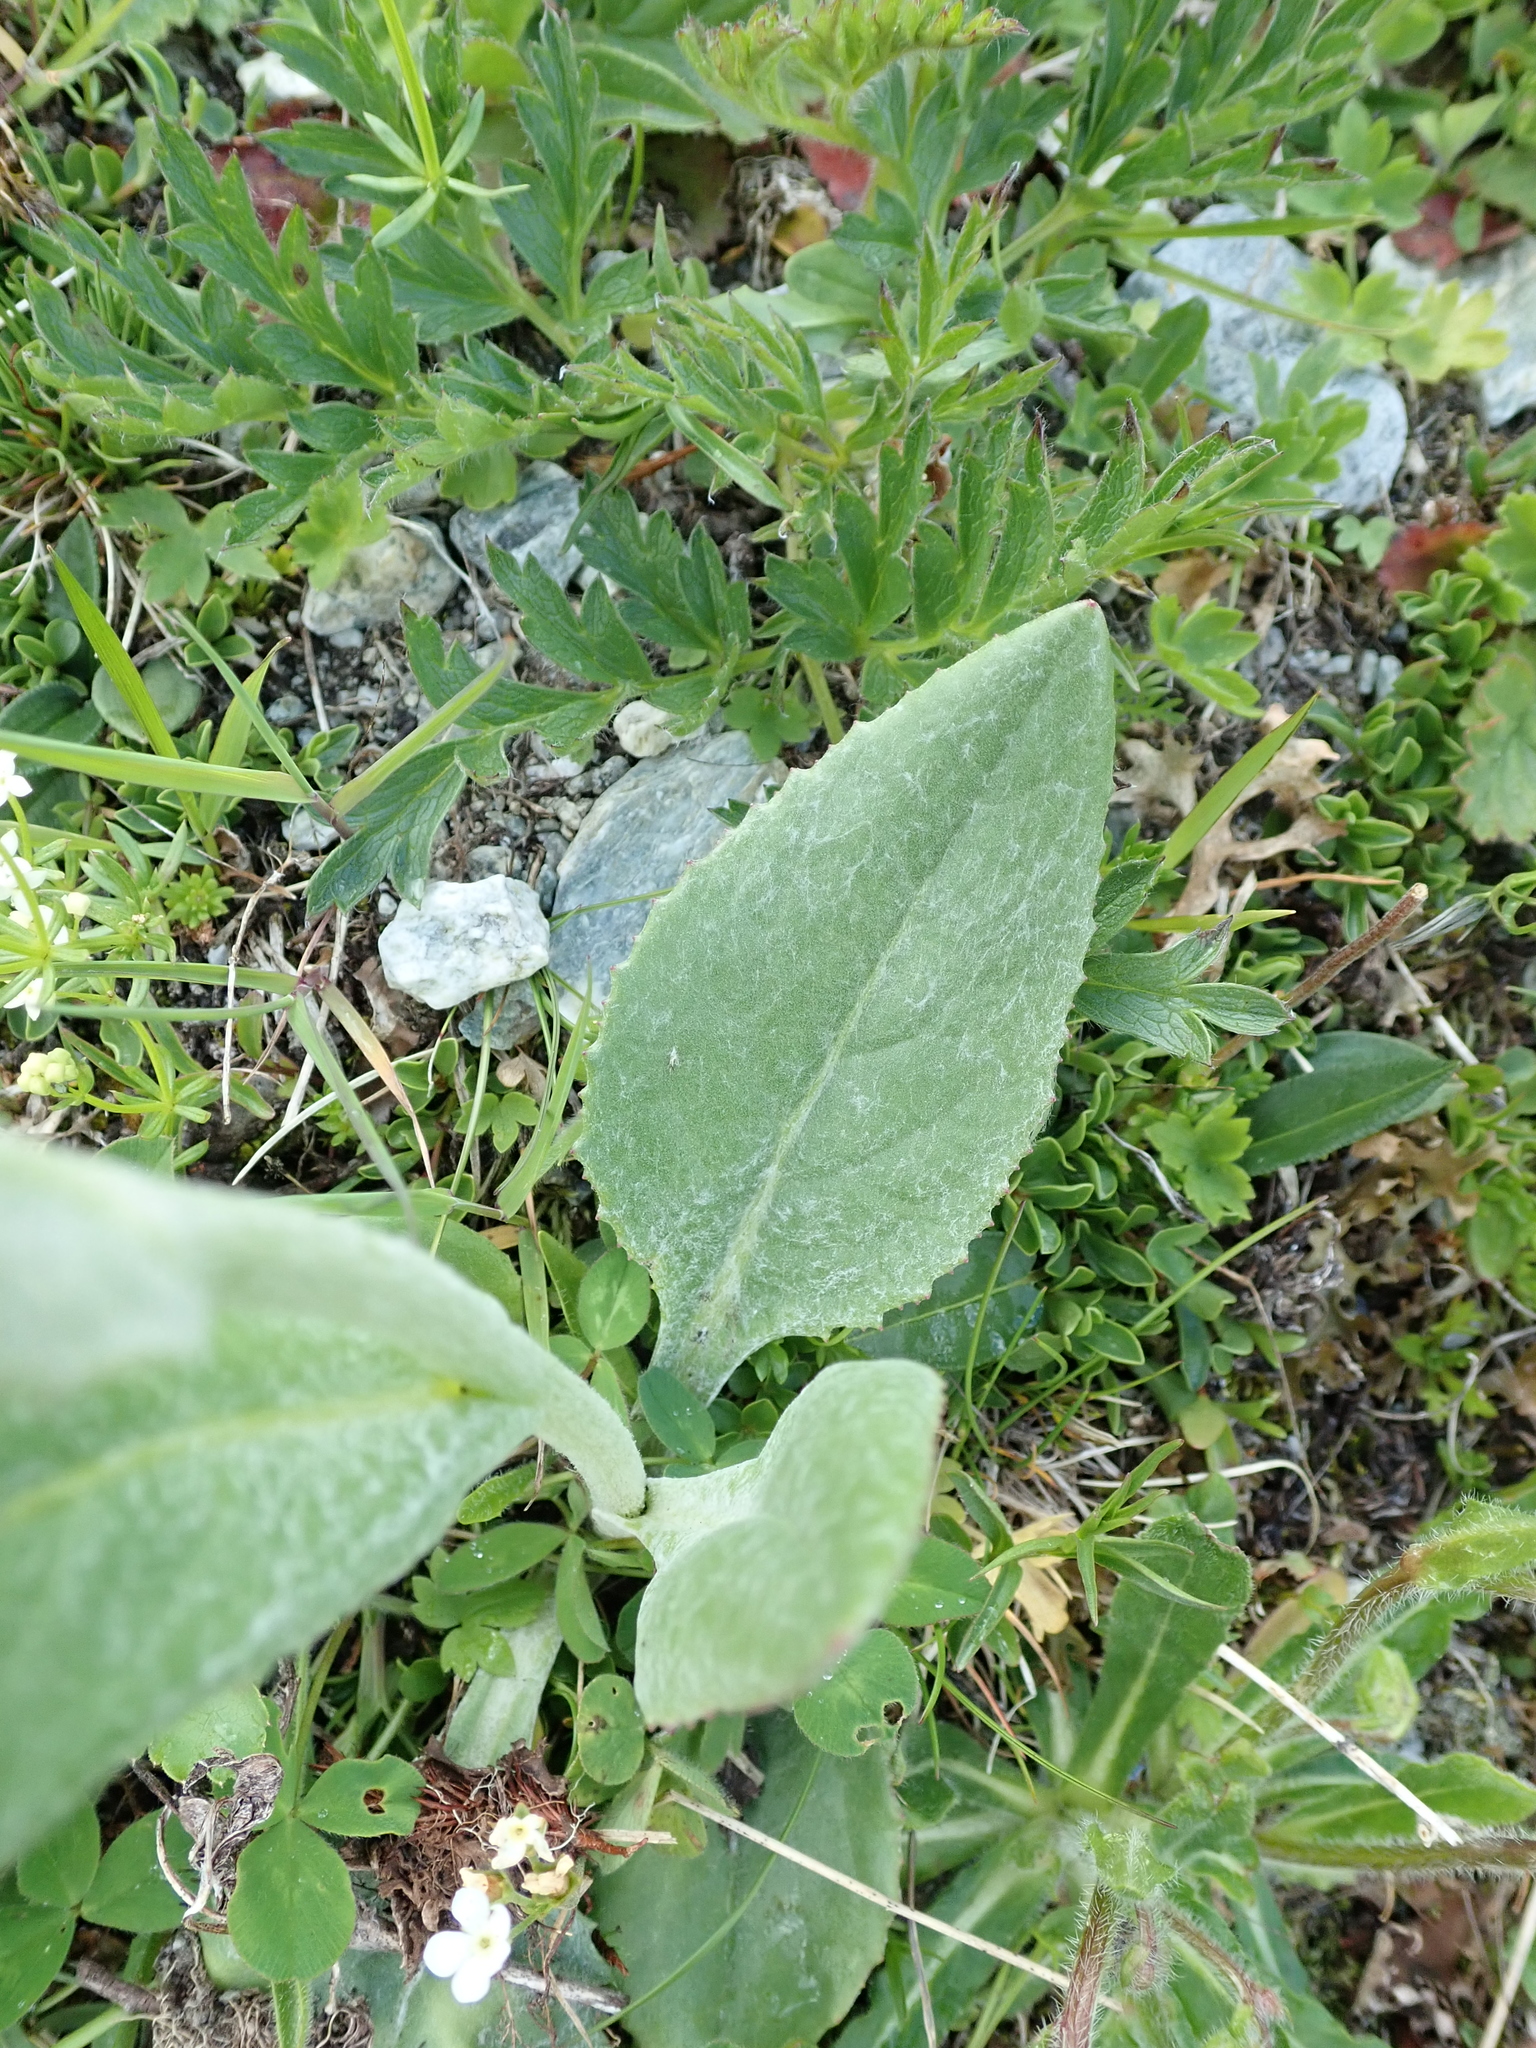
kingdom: Plantae
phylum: Tracheophyta
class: Magnoliopsida
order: Asterales
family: Asteraceae
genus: Senecio
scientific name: Senecio doronicum
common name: Chamois ragwort
